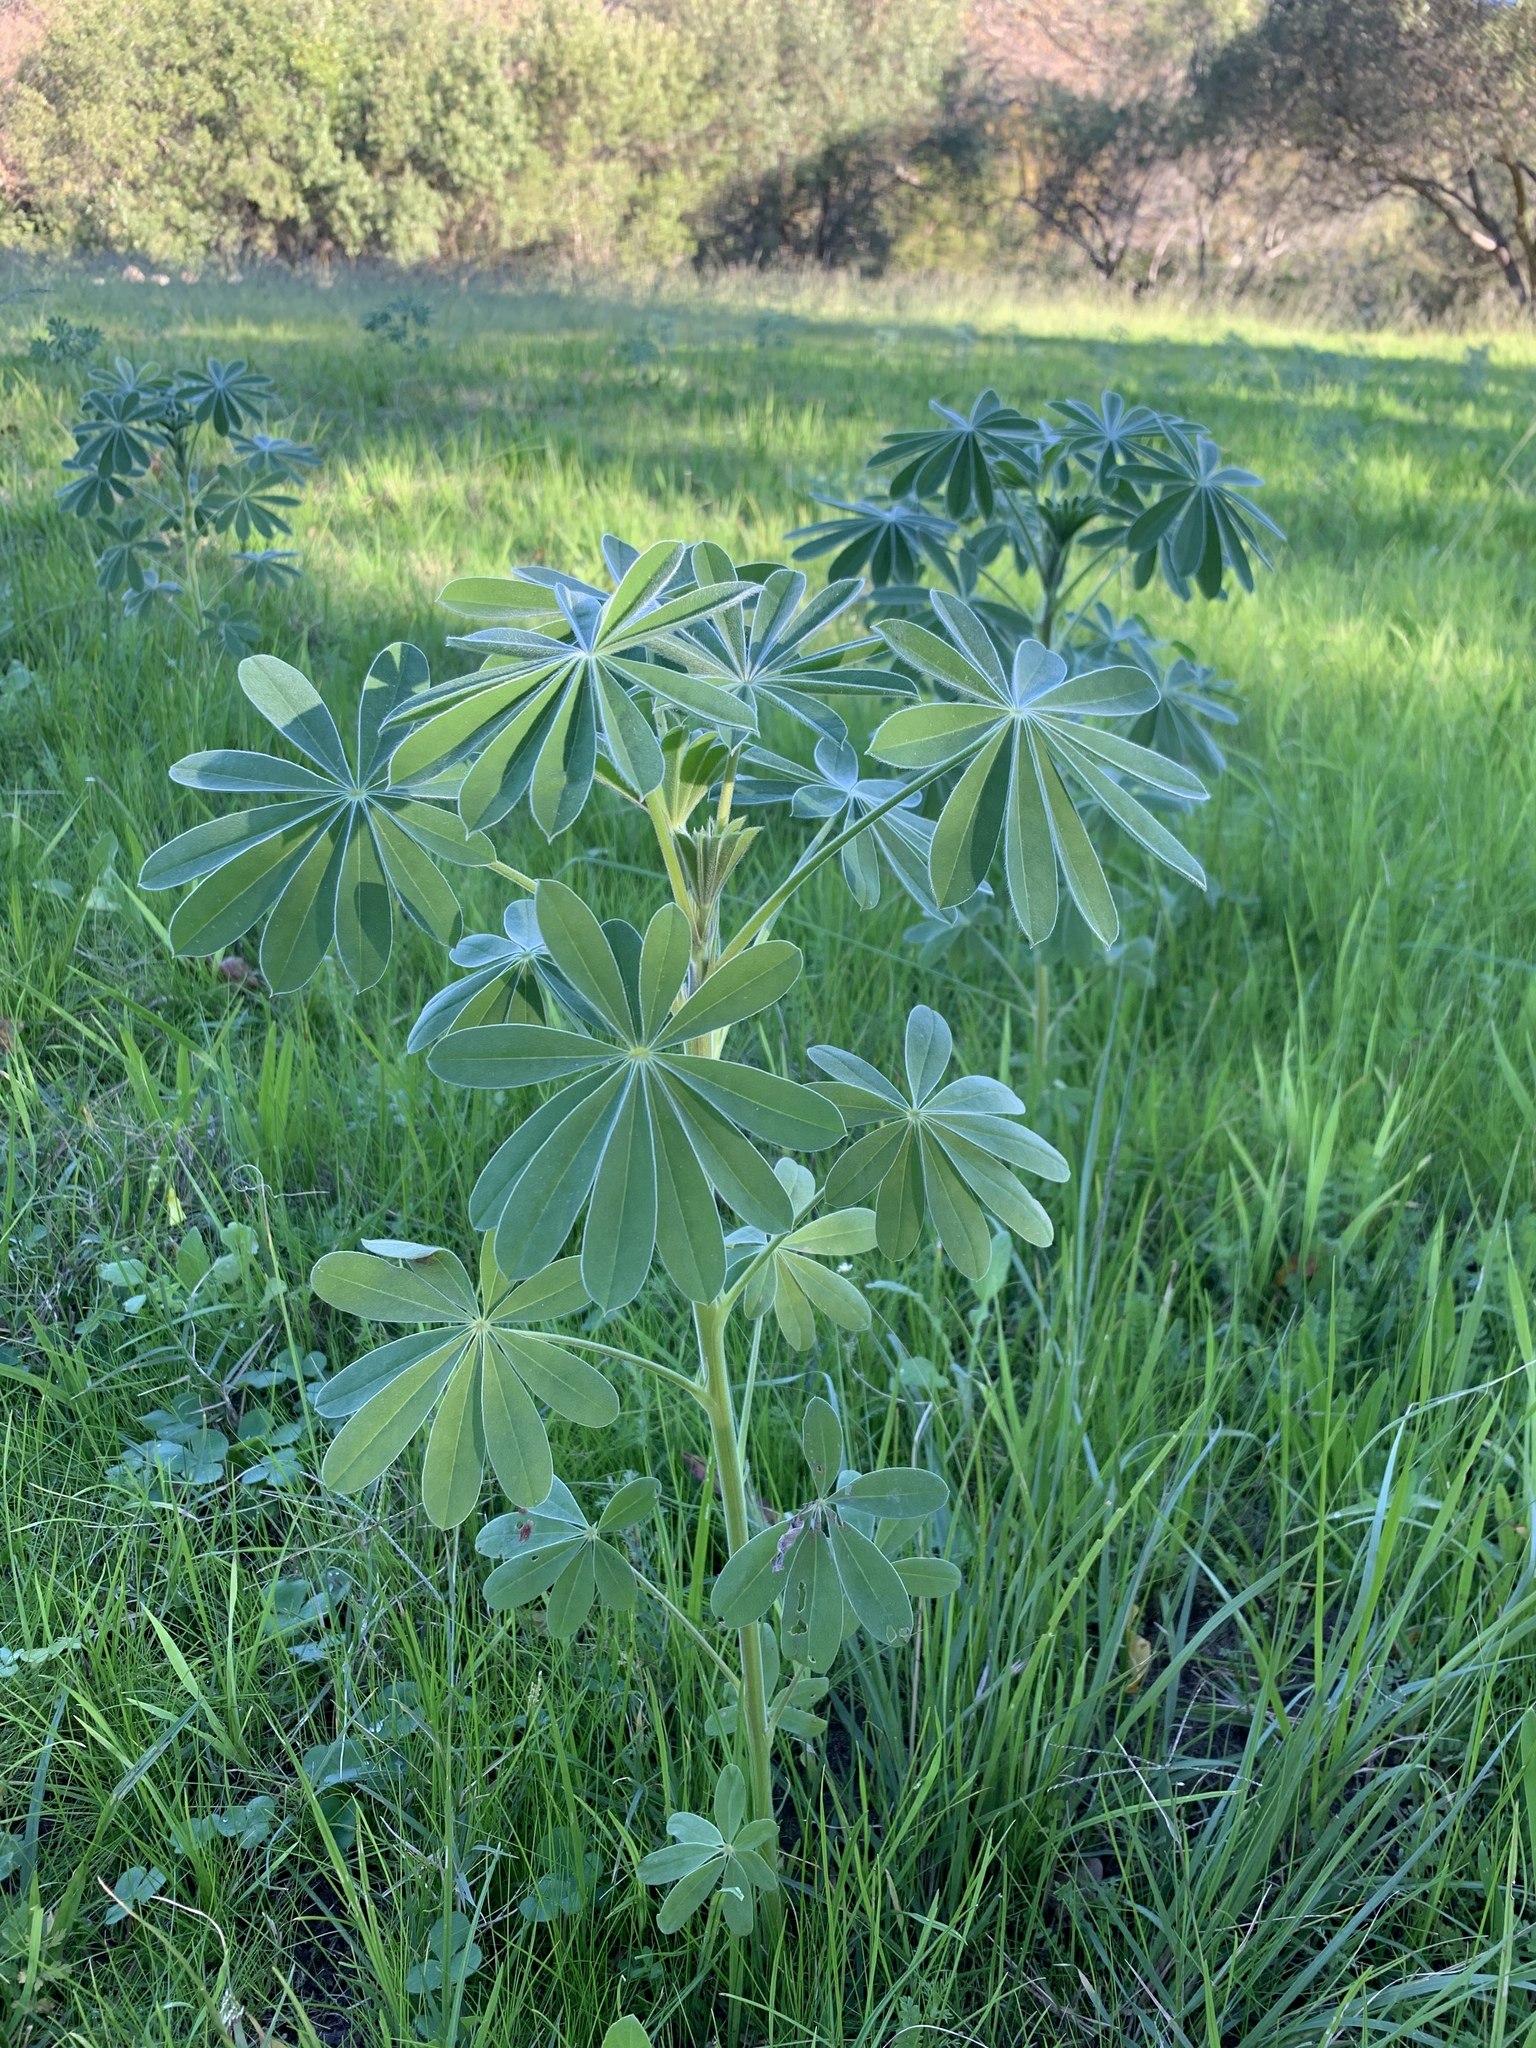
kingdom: Plantae
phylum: Tracheophyta
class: Magnoliopsida
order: Fabales
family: Fabaceae
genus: Lupinus
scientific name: Lupinus cosentinii
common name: Hairy blue lupin
